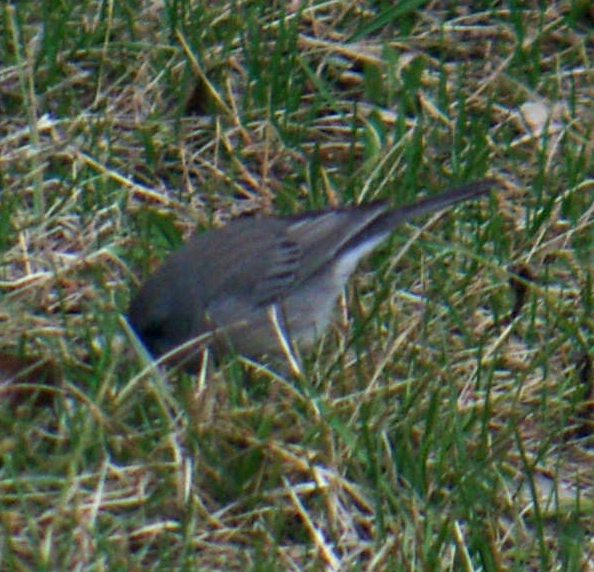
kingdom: Animalia
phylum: Chordata
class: Aves
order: Passeriformes
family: Passerellidae
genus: Junco
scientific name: Junco hyemalis
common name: Dark-eyed junco
